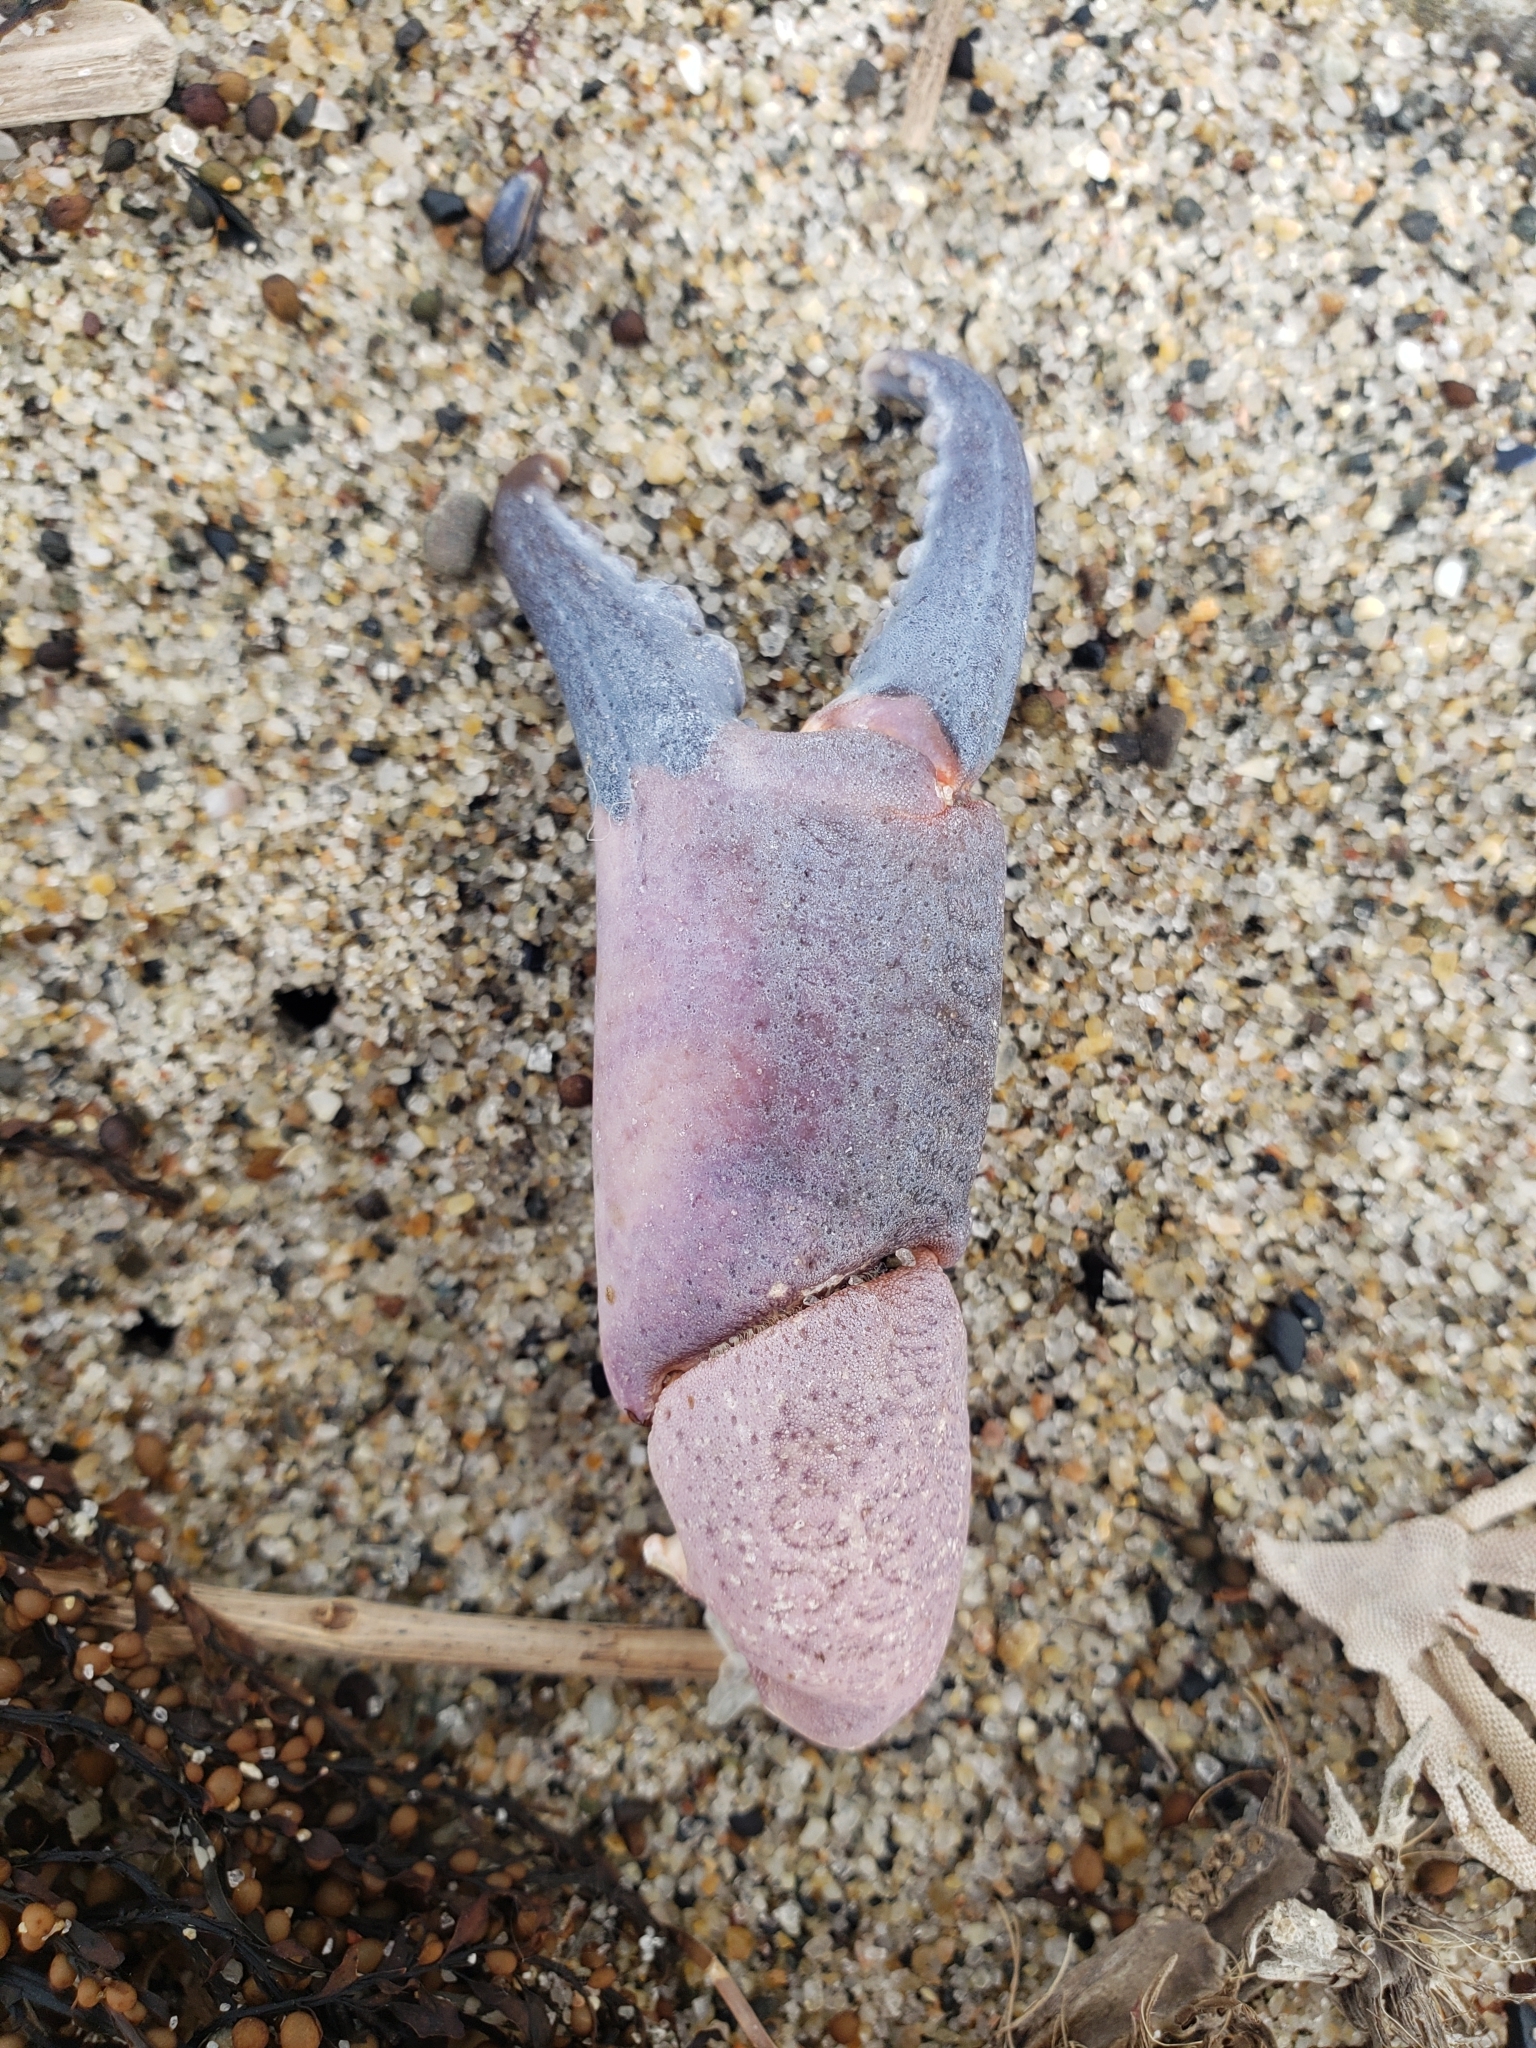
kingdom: Animalia
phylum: Arthropoda
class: Malacostraca
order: Decapoda
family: Xanthidae
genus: Cycloxanthops
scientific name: Cycloxanthops novemdentatus
